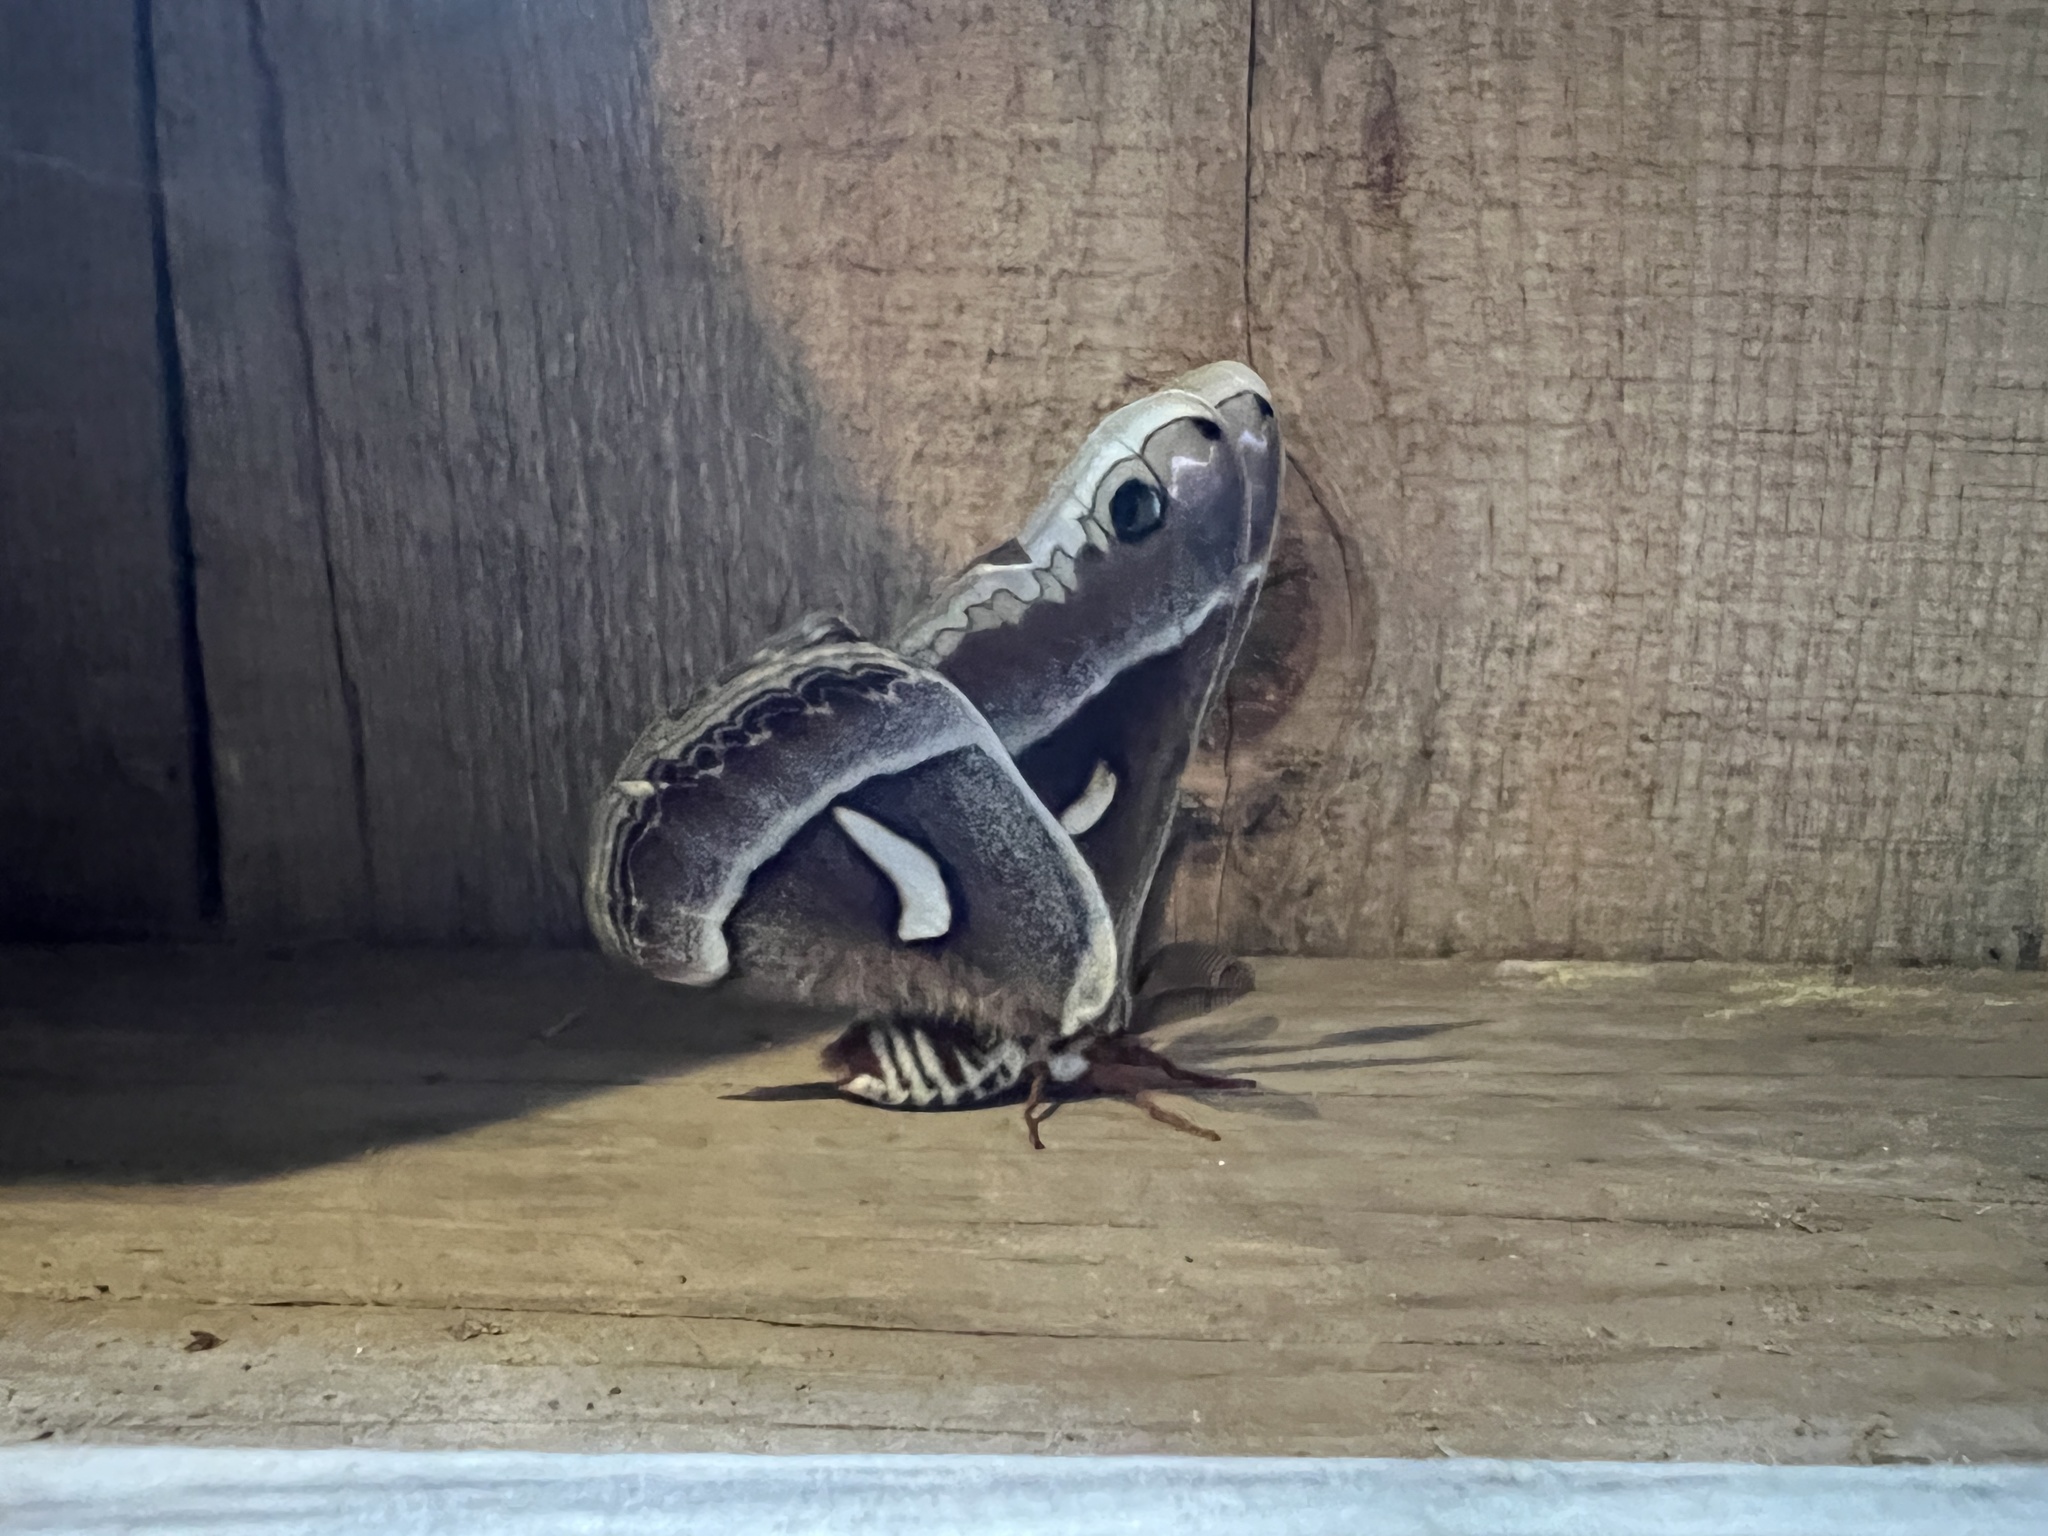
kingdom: Animalia
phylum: Arthropoda
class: Insecta
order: Lepidoptera
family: Saturniidae
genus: Hyalophora
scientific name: Hyalophora euryalus
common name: Ceanothus silkmoth
